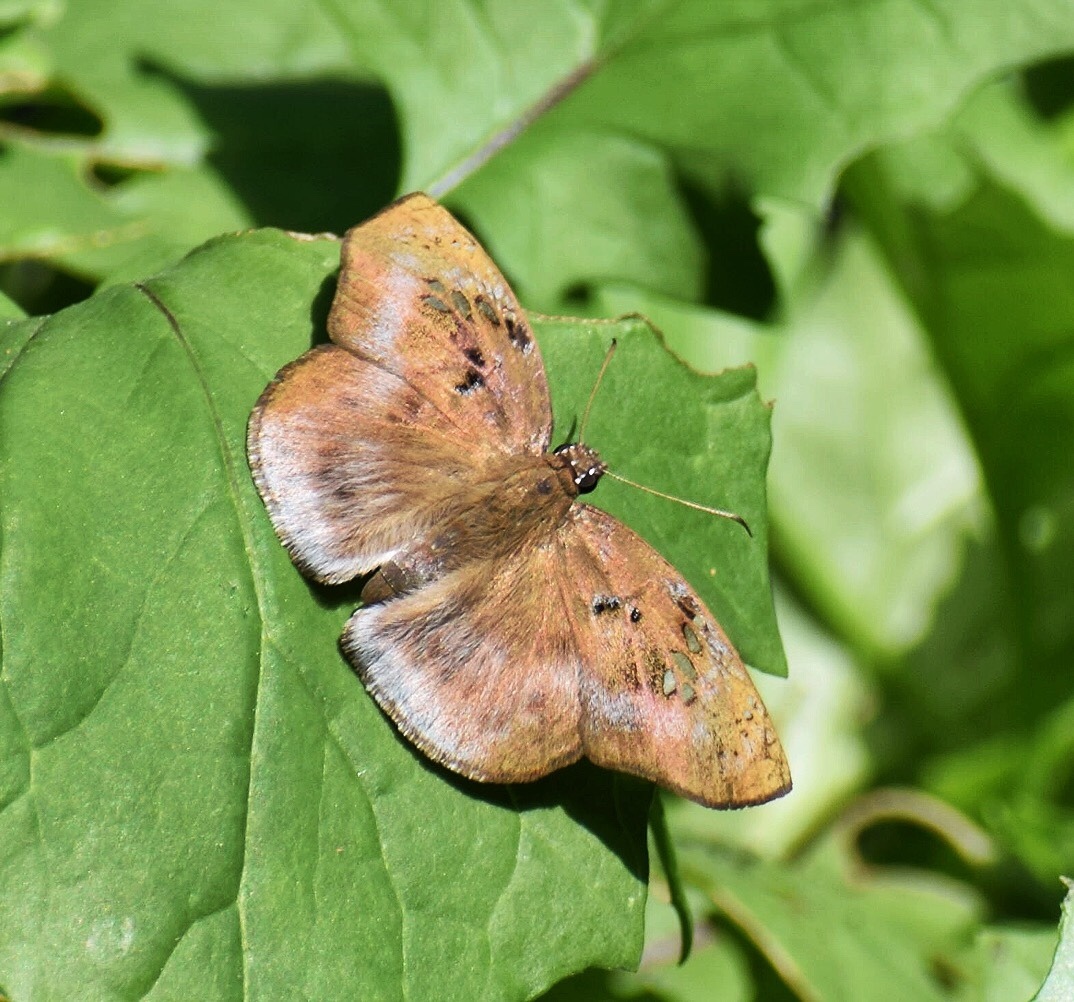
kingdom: Animalia
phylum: Arthropoda
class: Insecta
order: Lepidoptera
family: Hesperiidae
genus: Tagiades
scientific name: Tagiades flesus
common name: Clouded flat
